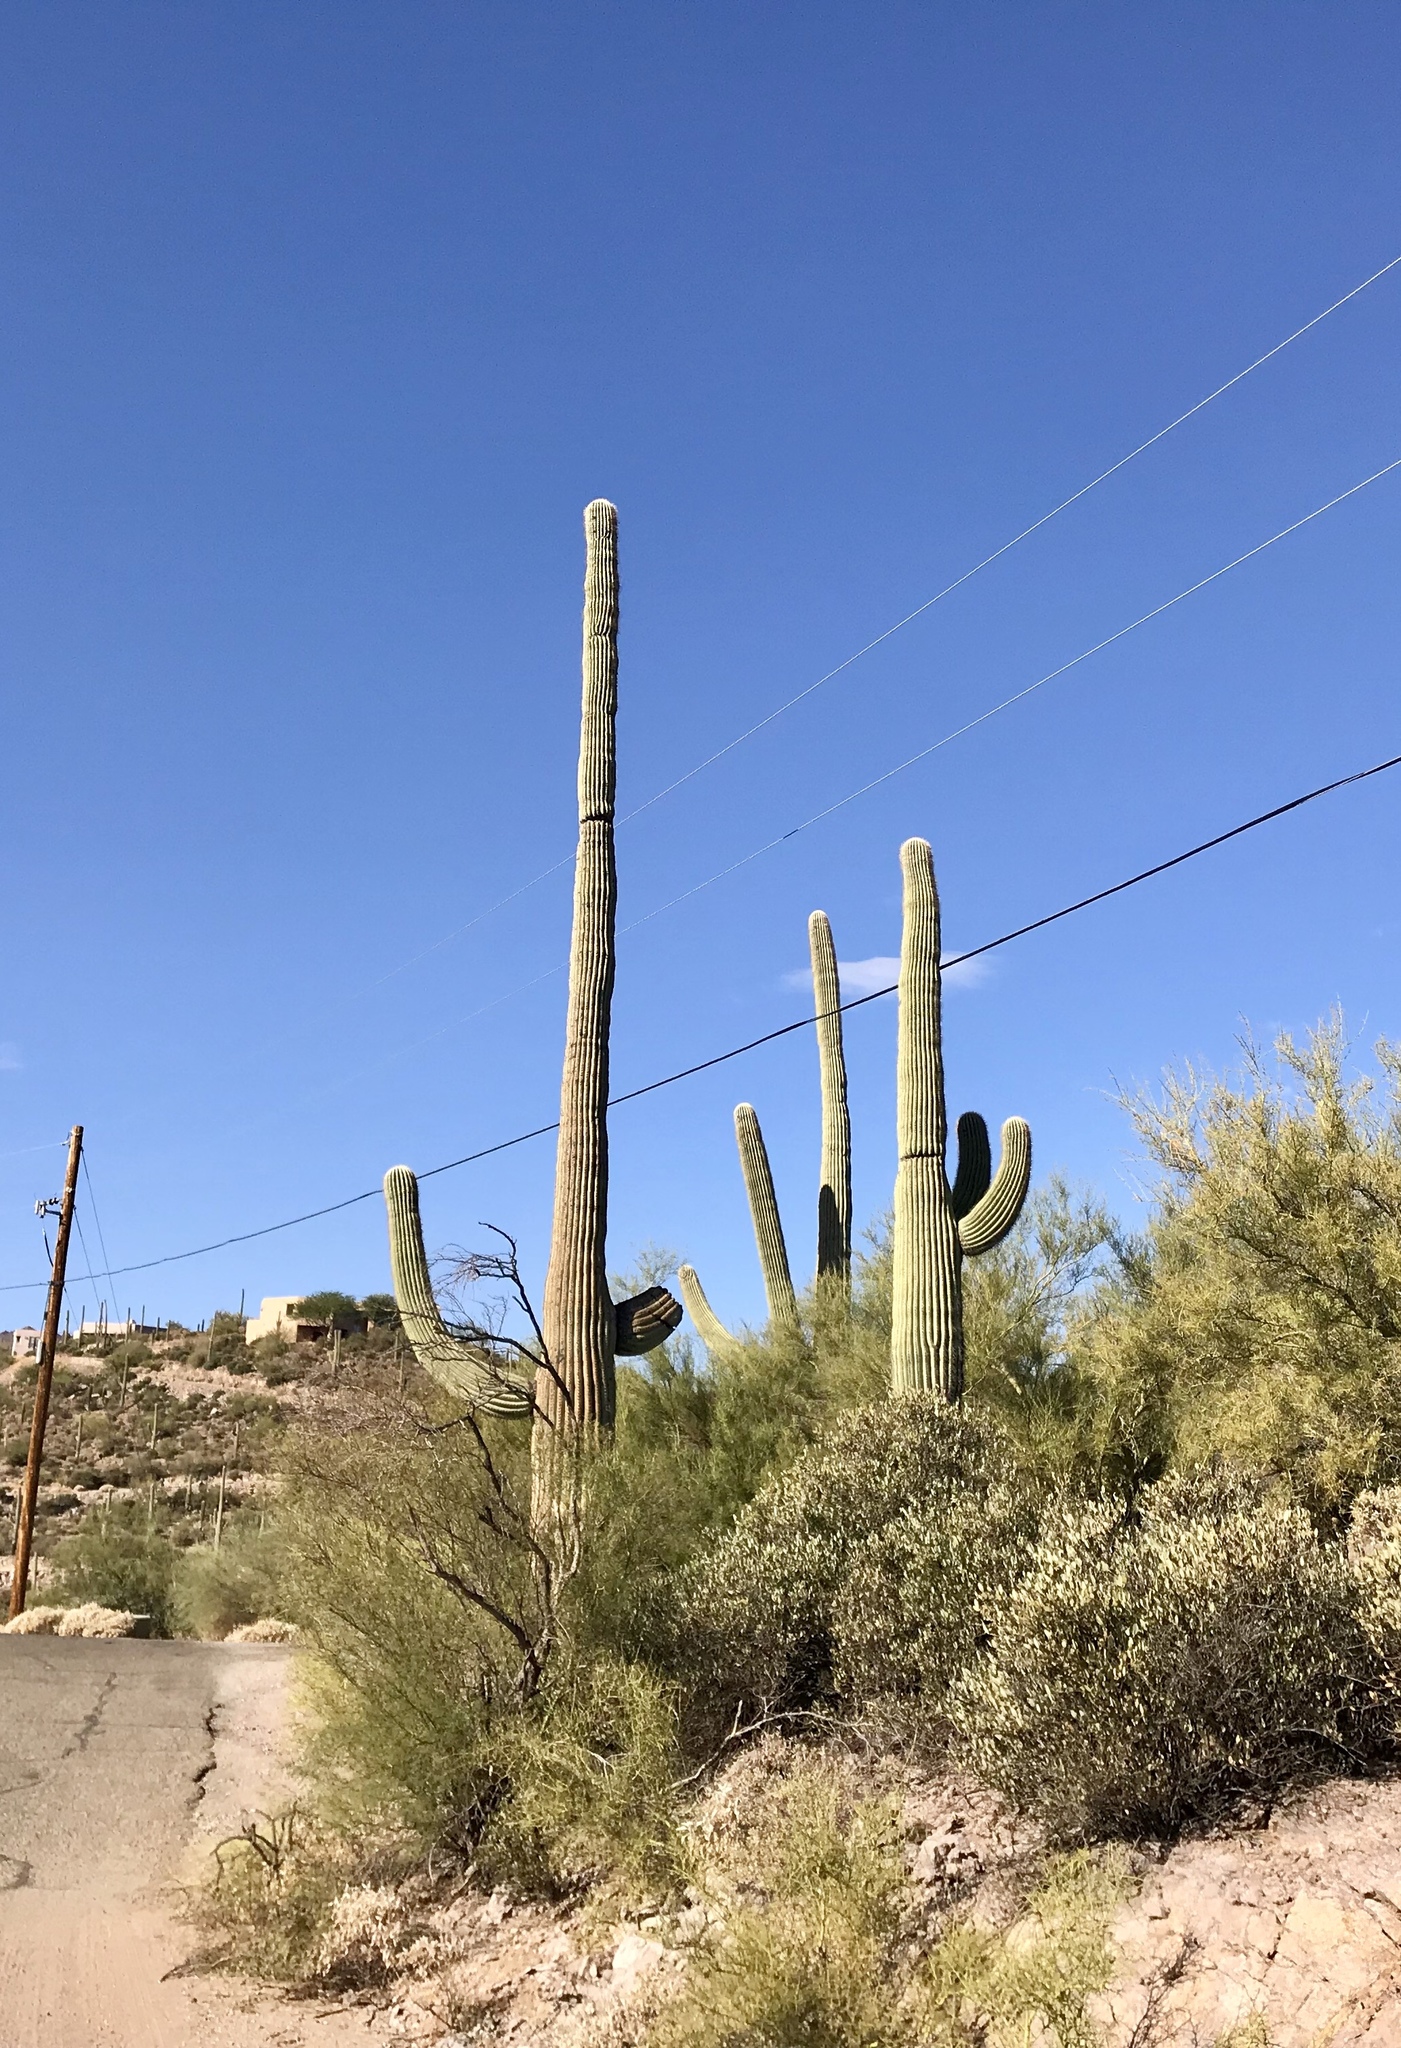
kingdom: Plantae
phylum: Tracheophyta
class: Magnoliopsida
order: Caryophyllales
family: Cactaceae
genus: Carnegiea
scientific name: Carnegiea gigantea
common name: Saguaro
